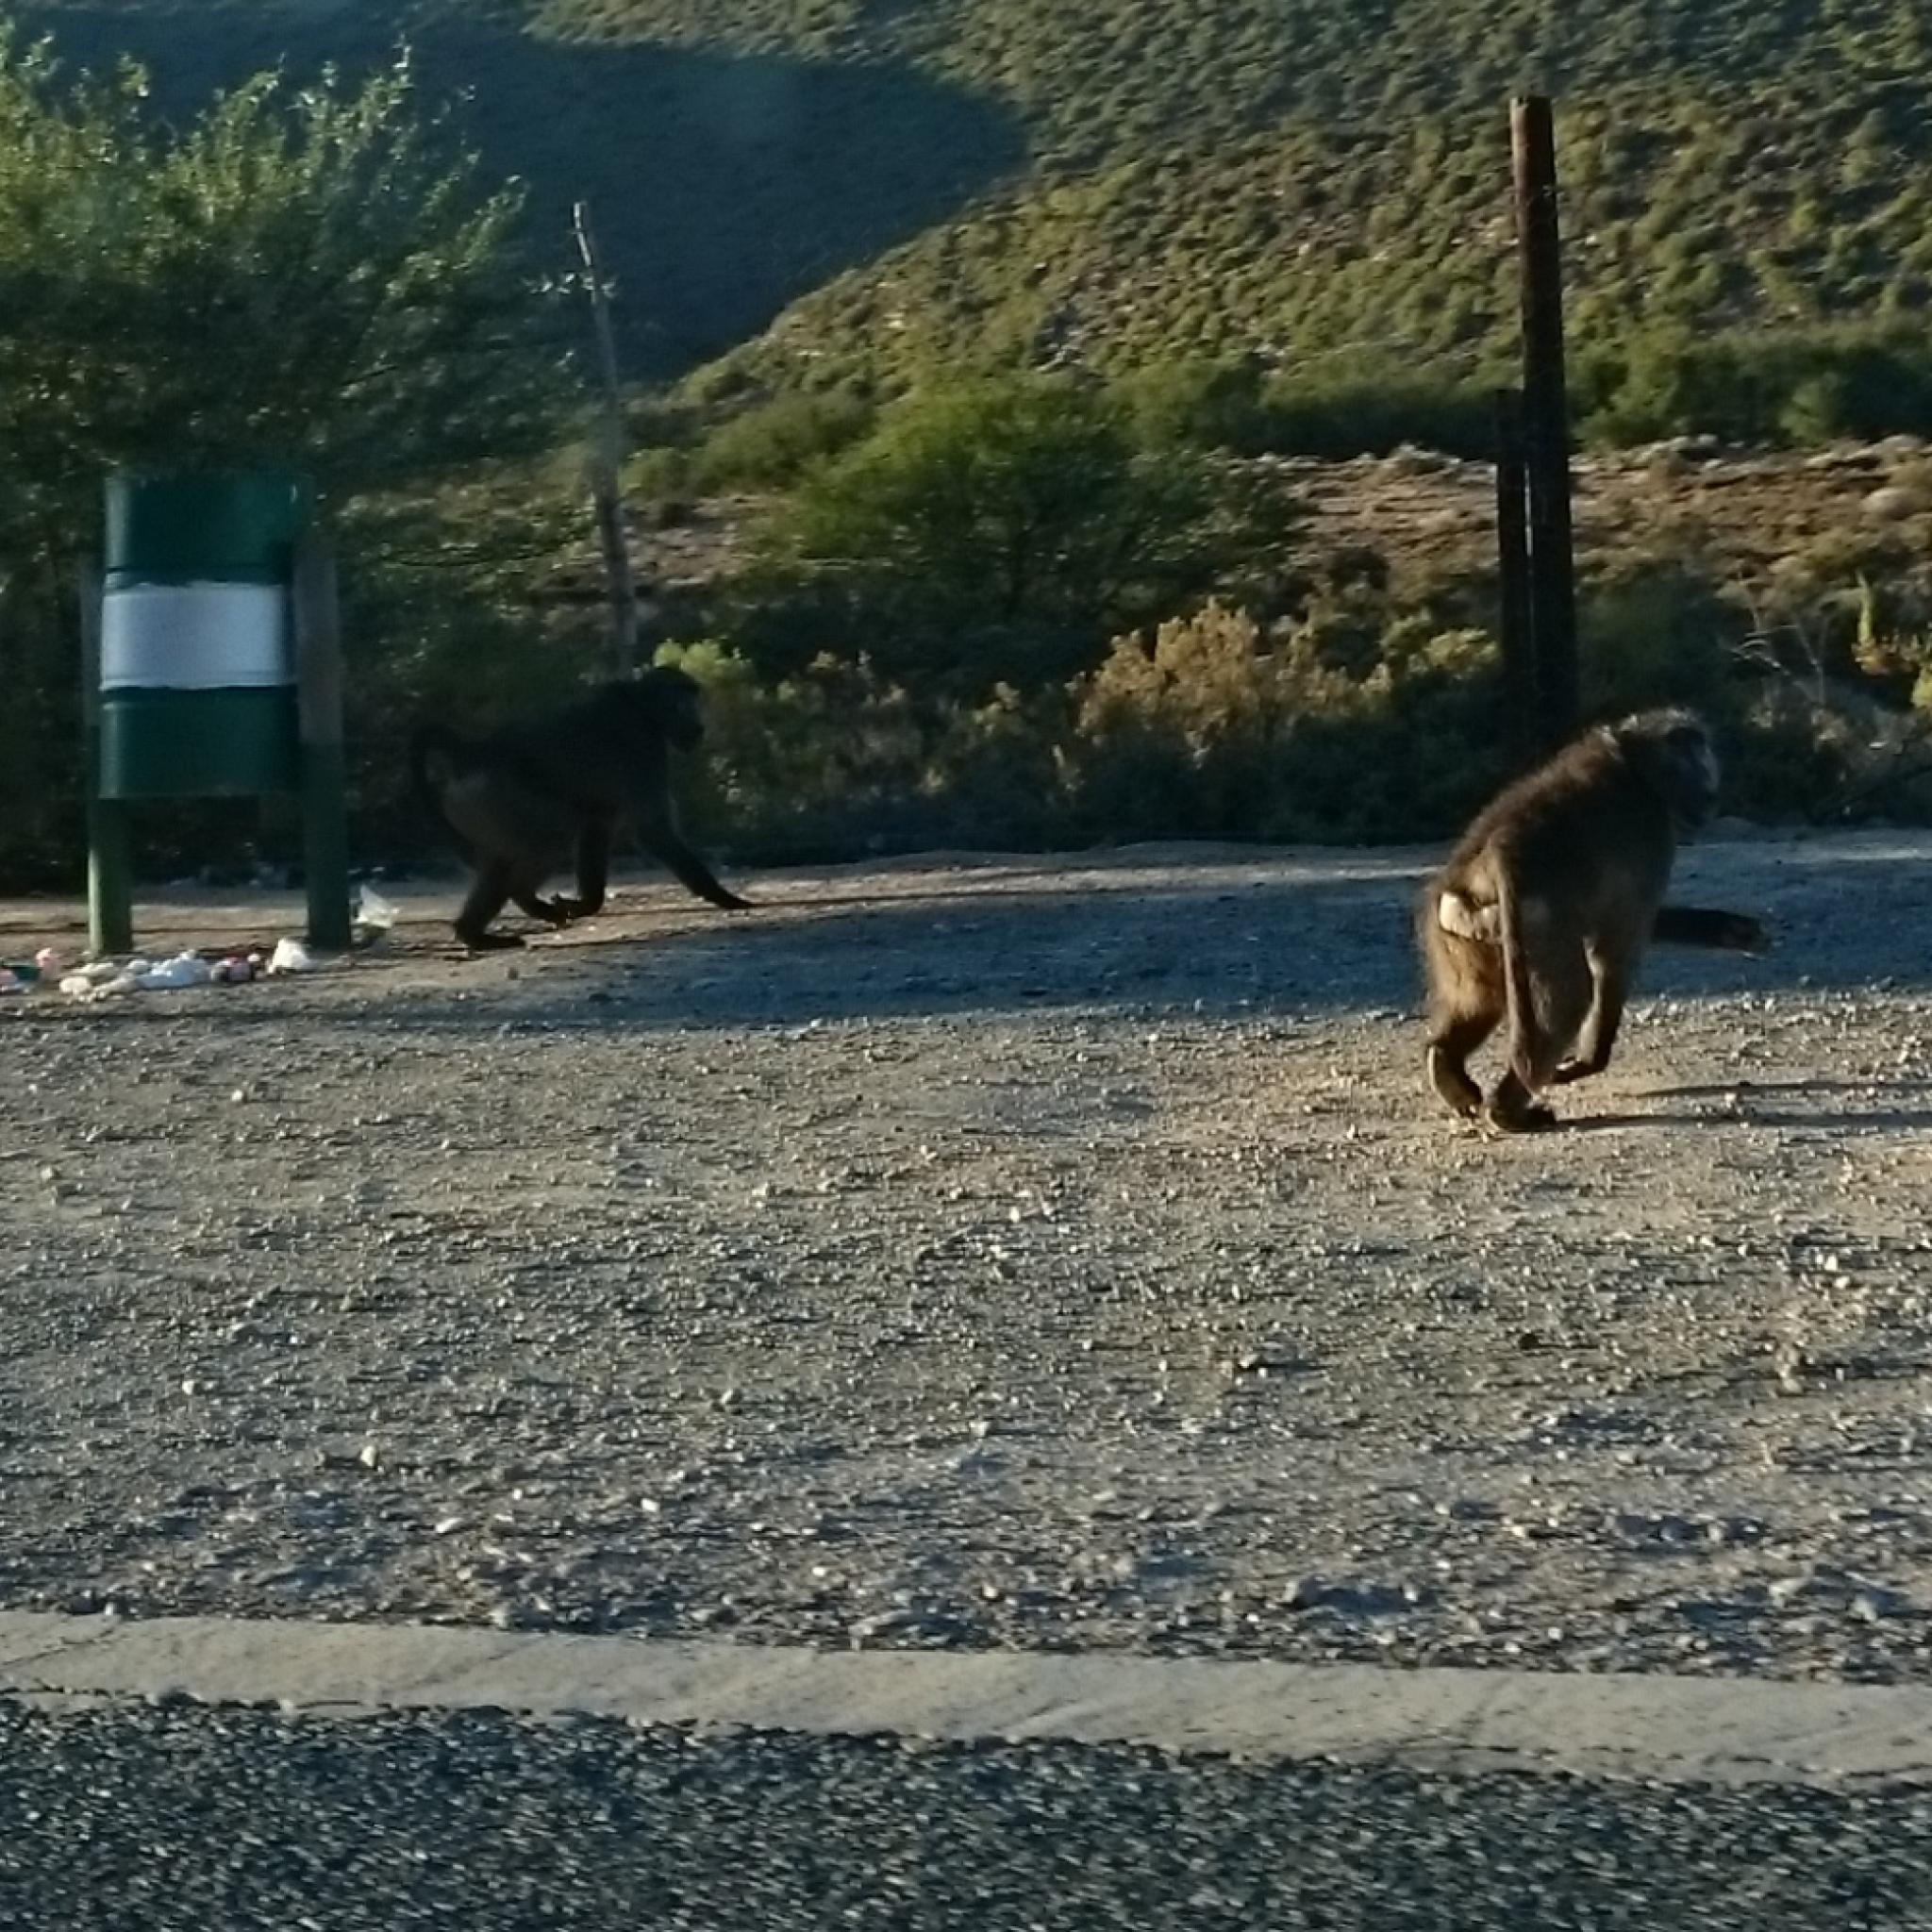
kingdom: Animalia
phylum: Chordata
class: Mammalia
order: Primates
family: Cercopithecidae
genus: Papio
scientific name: Papio ursinus
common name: Chacma baboon
